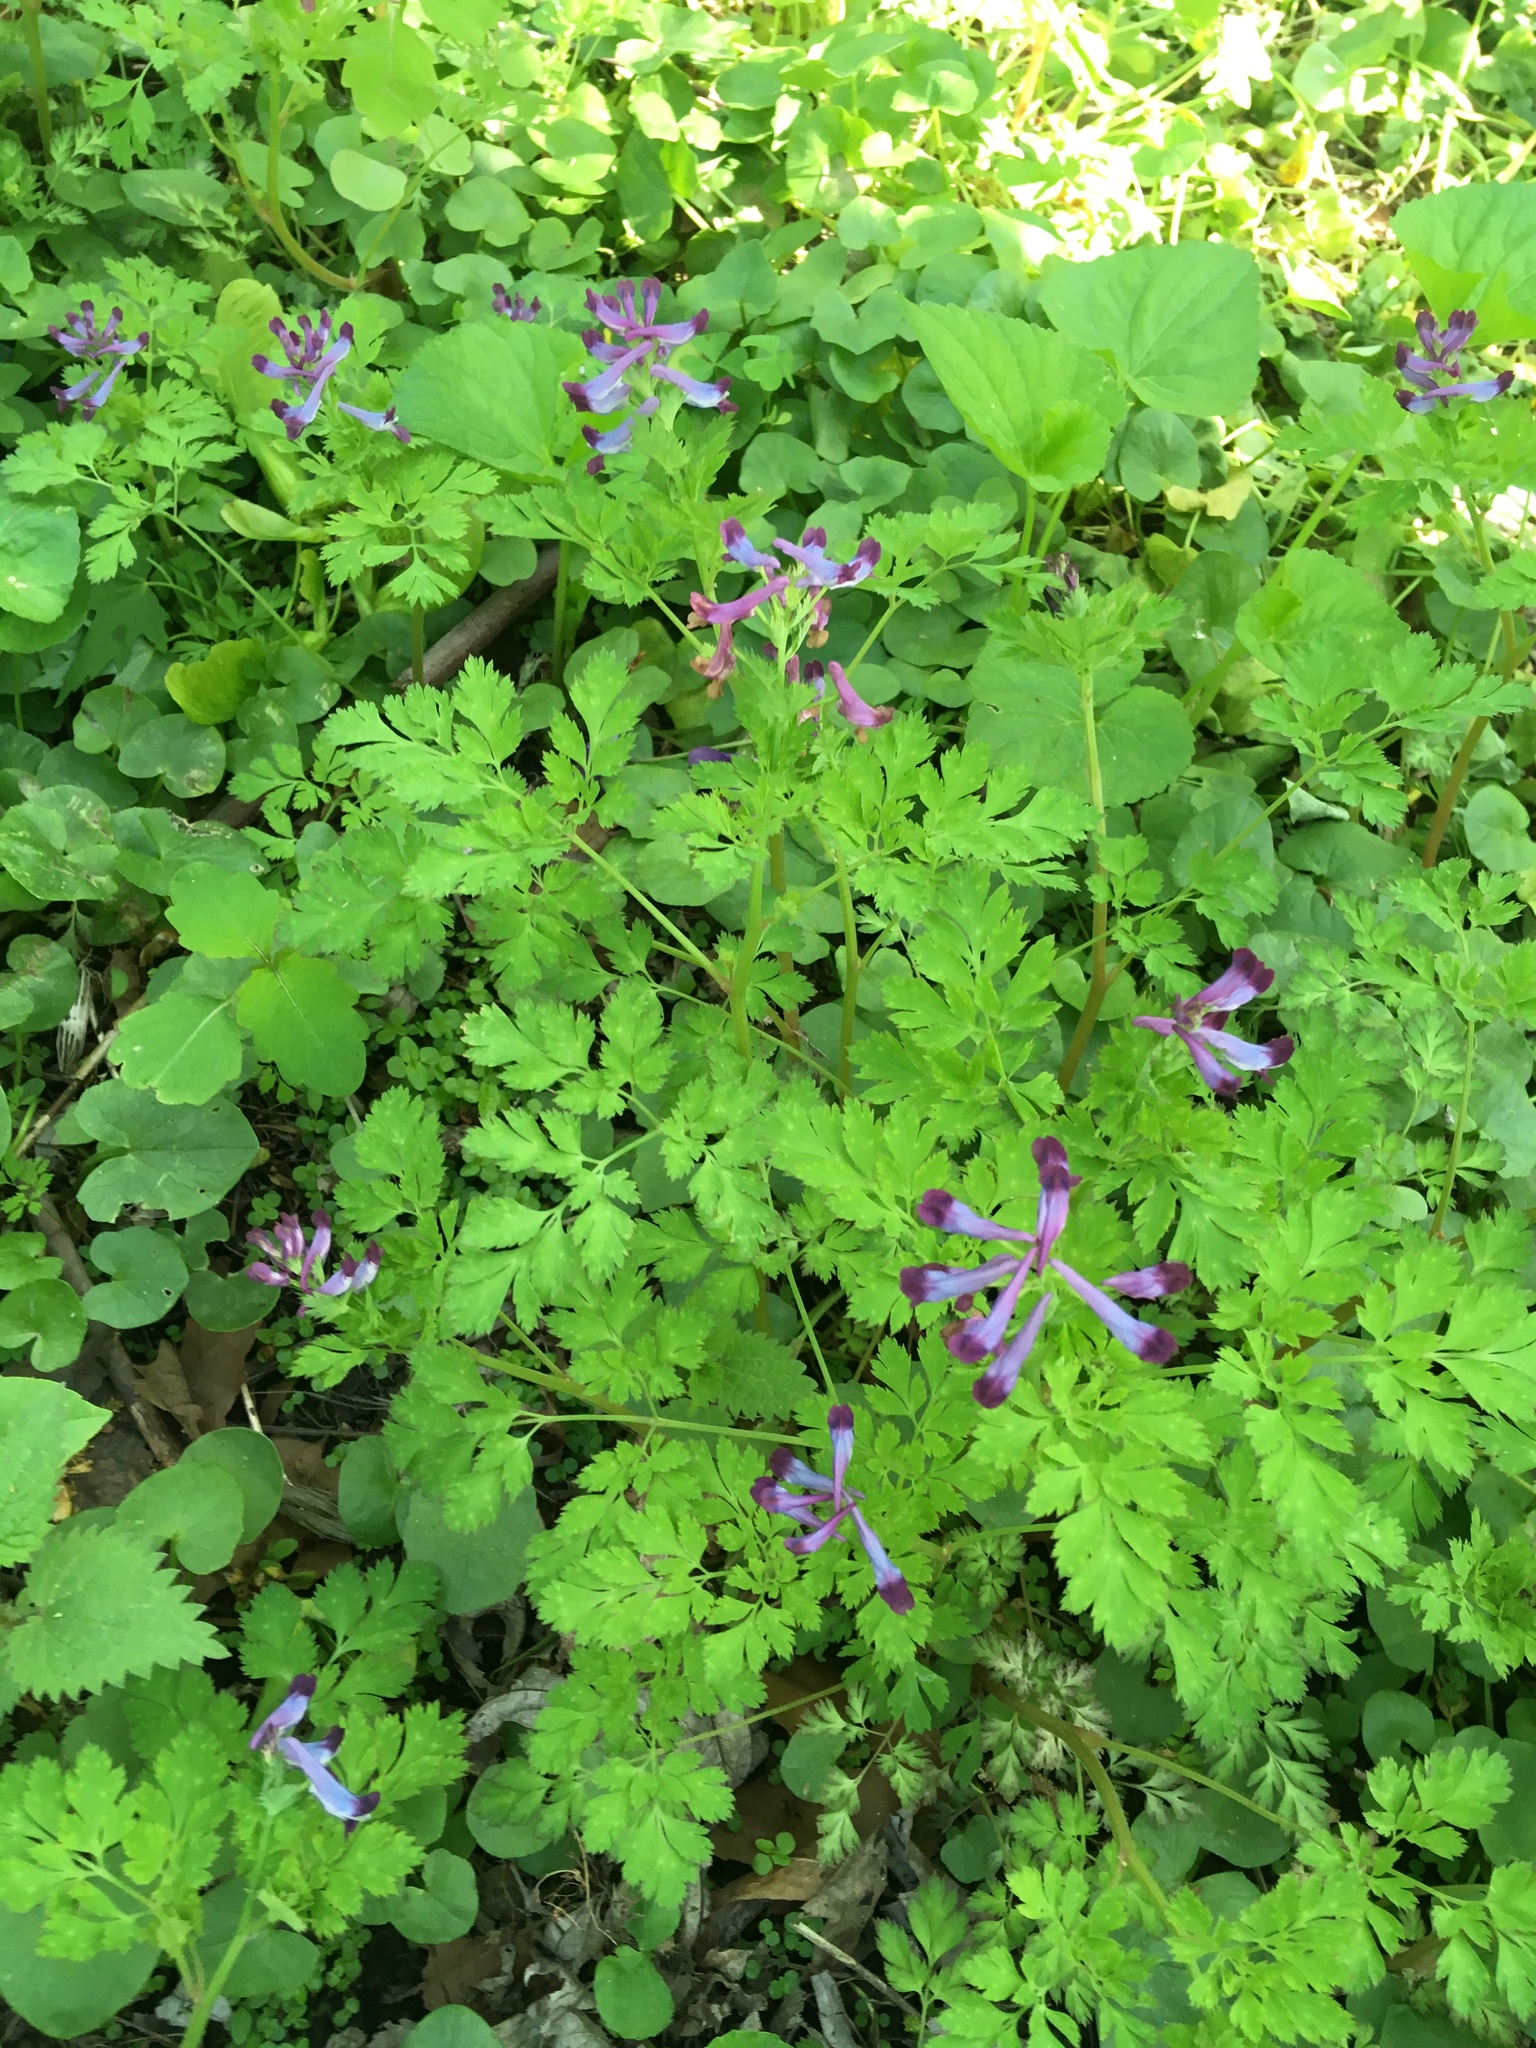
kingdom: Plantae
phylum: Tracheophyta
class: Magnoliopsida
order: Ranunculales
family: Papaveraceae
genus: Corydalis
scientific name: Corydalis incisa
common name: Incised fumewort
